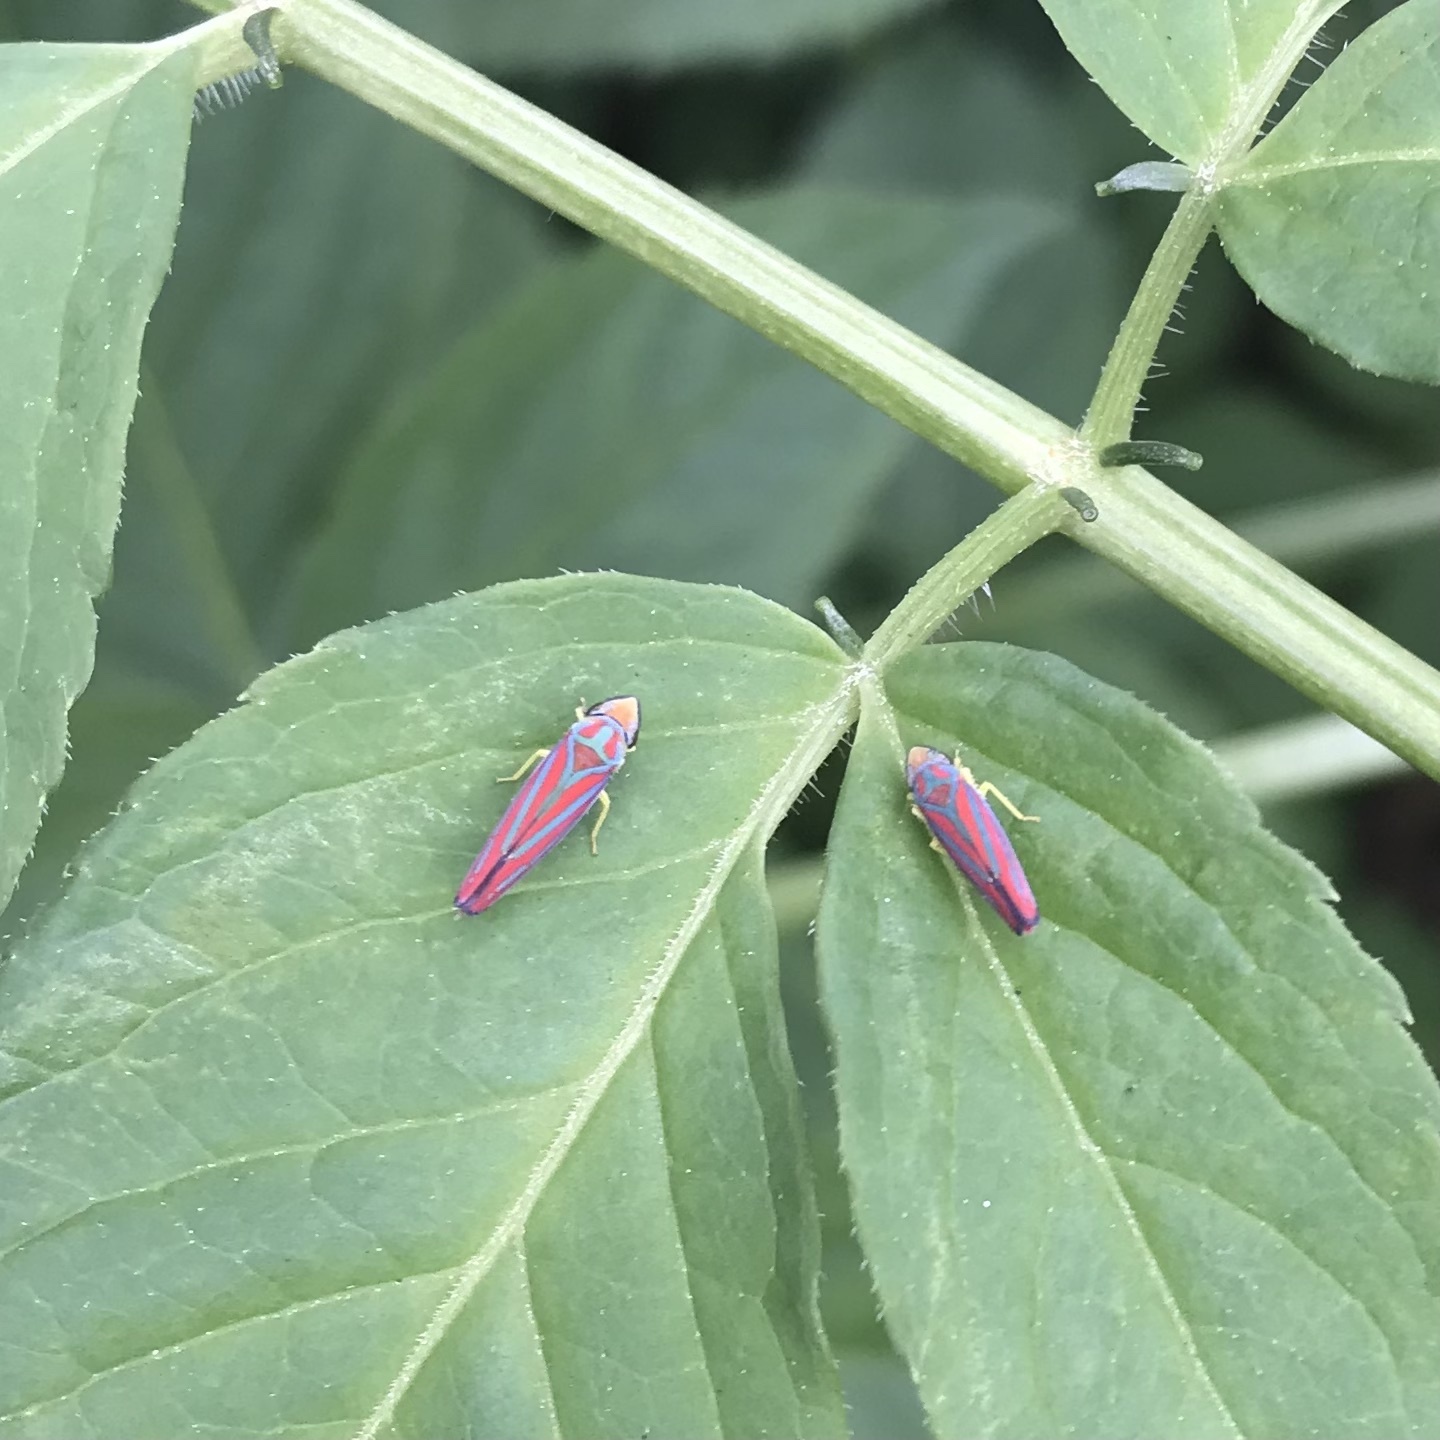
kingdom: Animalia
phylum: Arthropoda
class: Insecta
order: Hemiptera
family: Cicadellidae
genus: Graphocephala
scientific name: Graphocephala coccinea
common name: Candy-striped leafhopper
